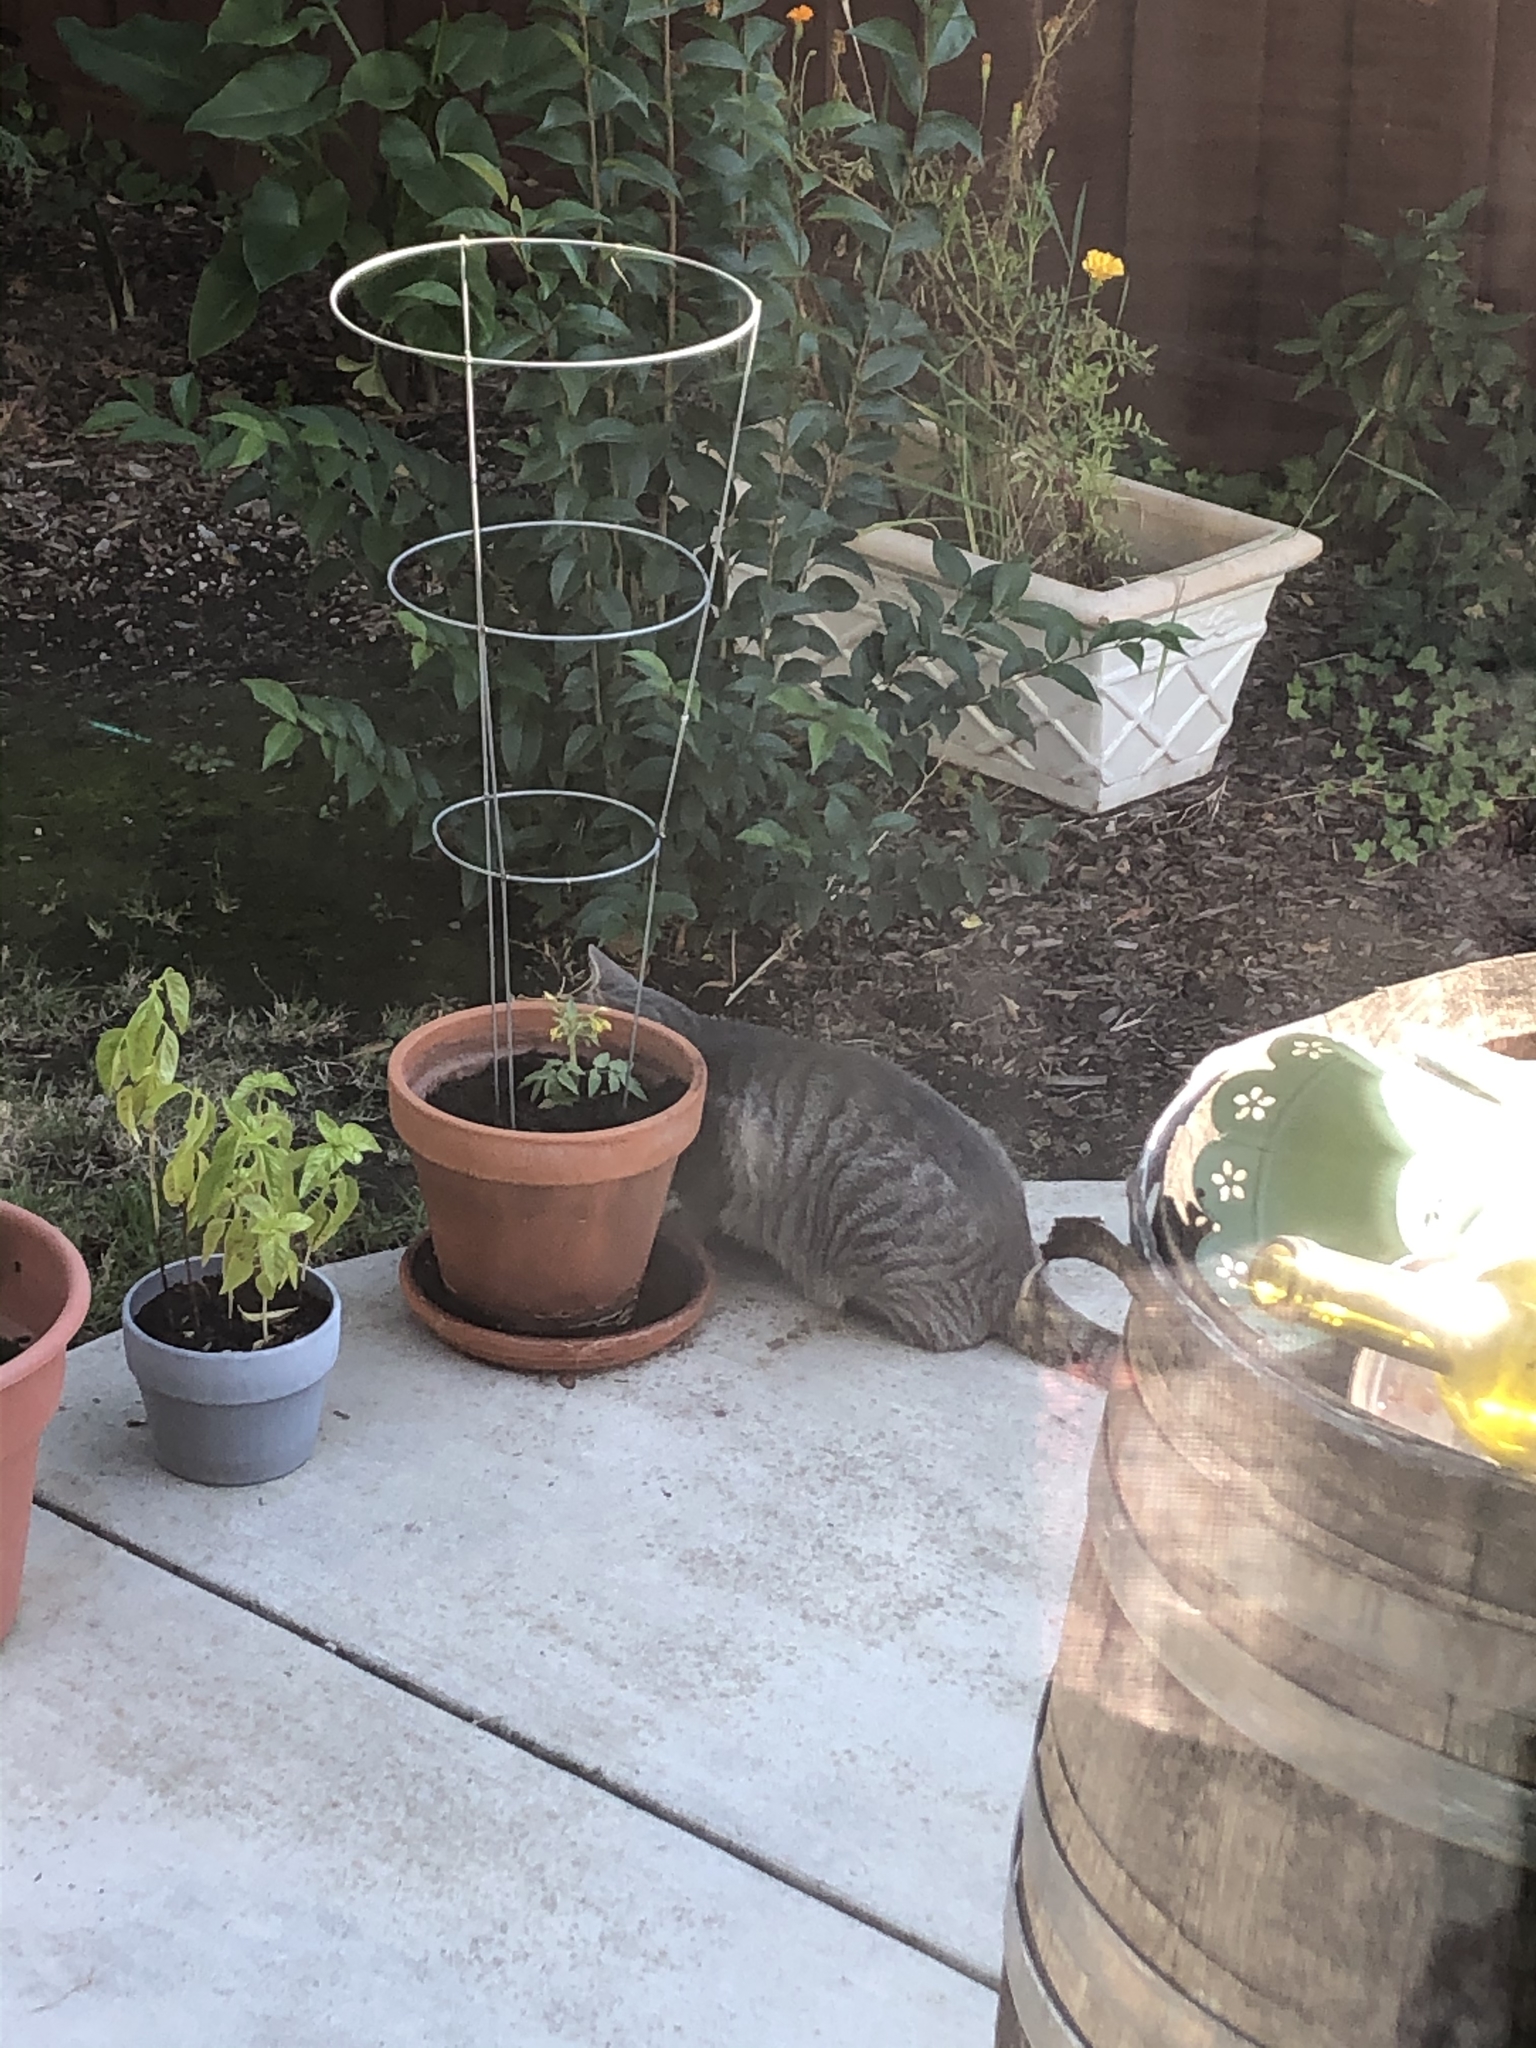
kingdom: Animalia
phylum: Chordata
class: Mammalia
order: Carnivora
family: Felidae
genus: Felis
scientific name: Felis catus
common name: Domestic cat
